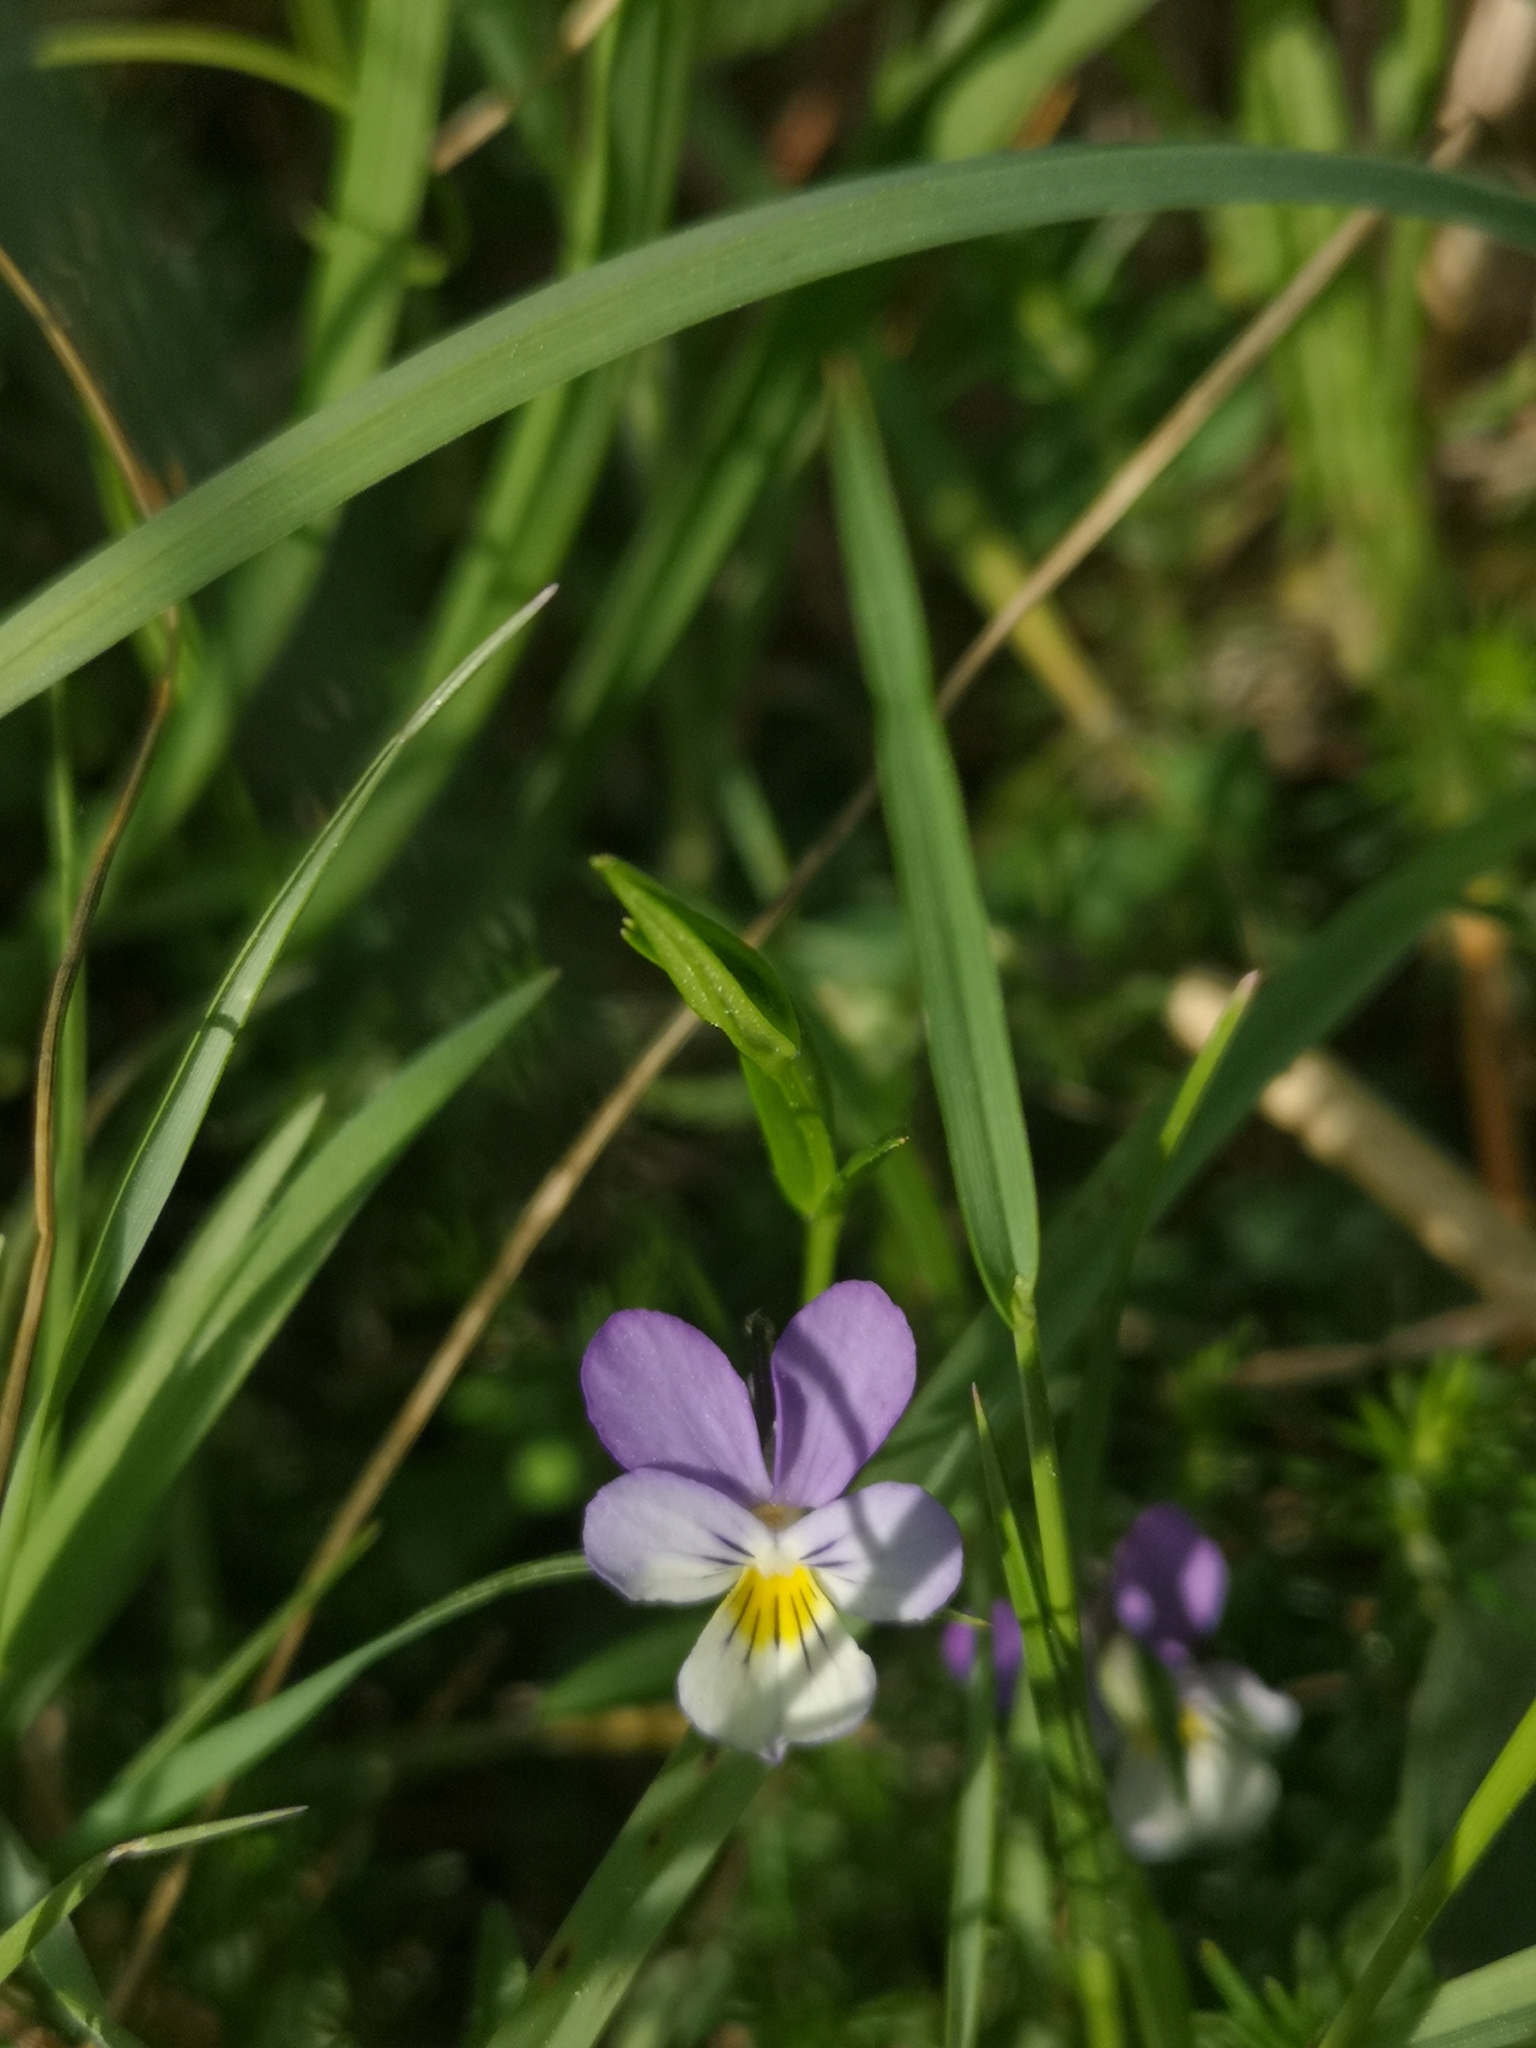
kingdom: Plantae
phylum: Tracheophyta
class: Magnoliopsida
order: Malpighiales
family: Violaceae
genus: Viola
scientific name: Viola tricolor
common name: Pansy
